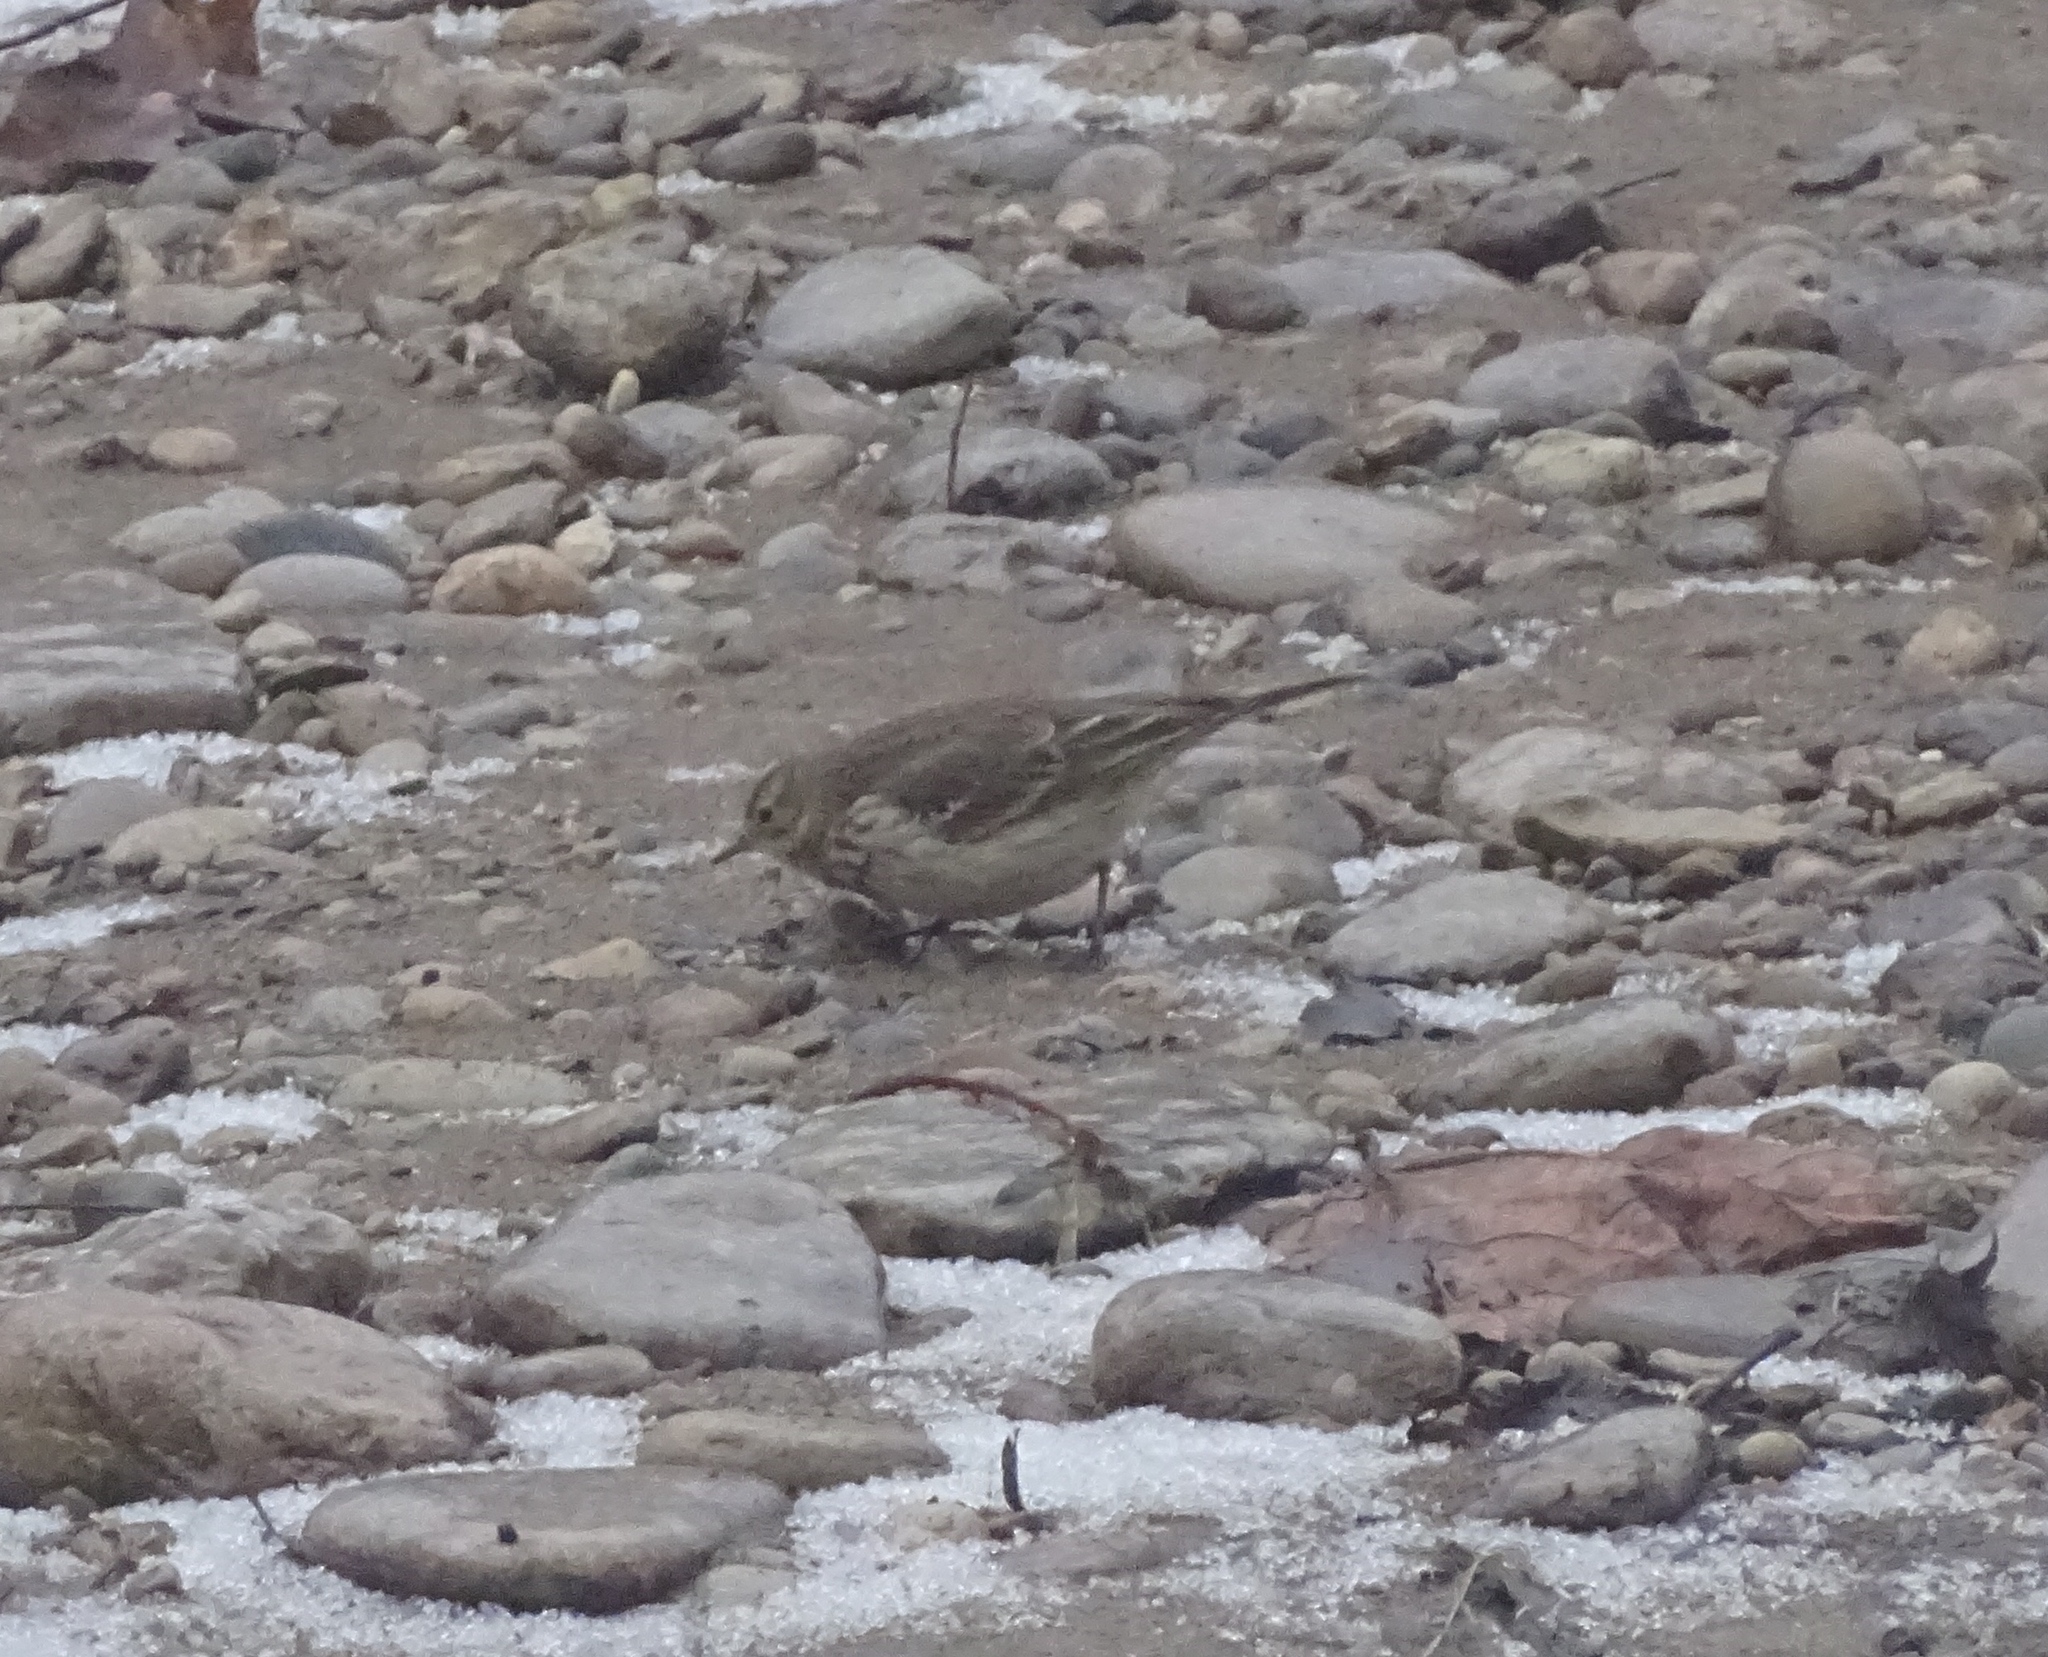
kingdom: Animalia
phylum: Chordata
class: Aves
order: Passeriformes
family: Motacillidae
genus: Anthus
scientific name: Anthus rubescens
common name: Buff-bellied pipit
